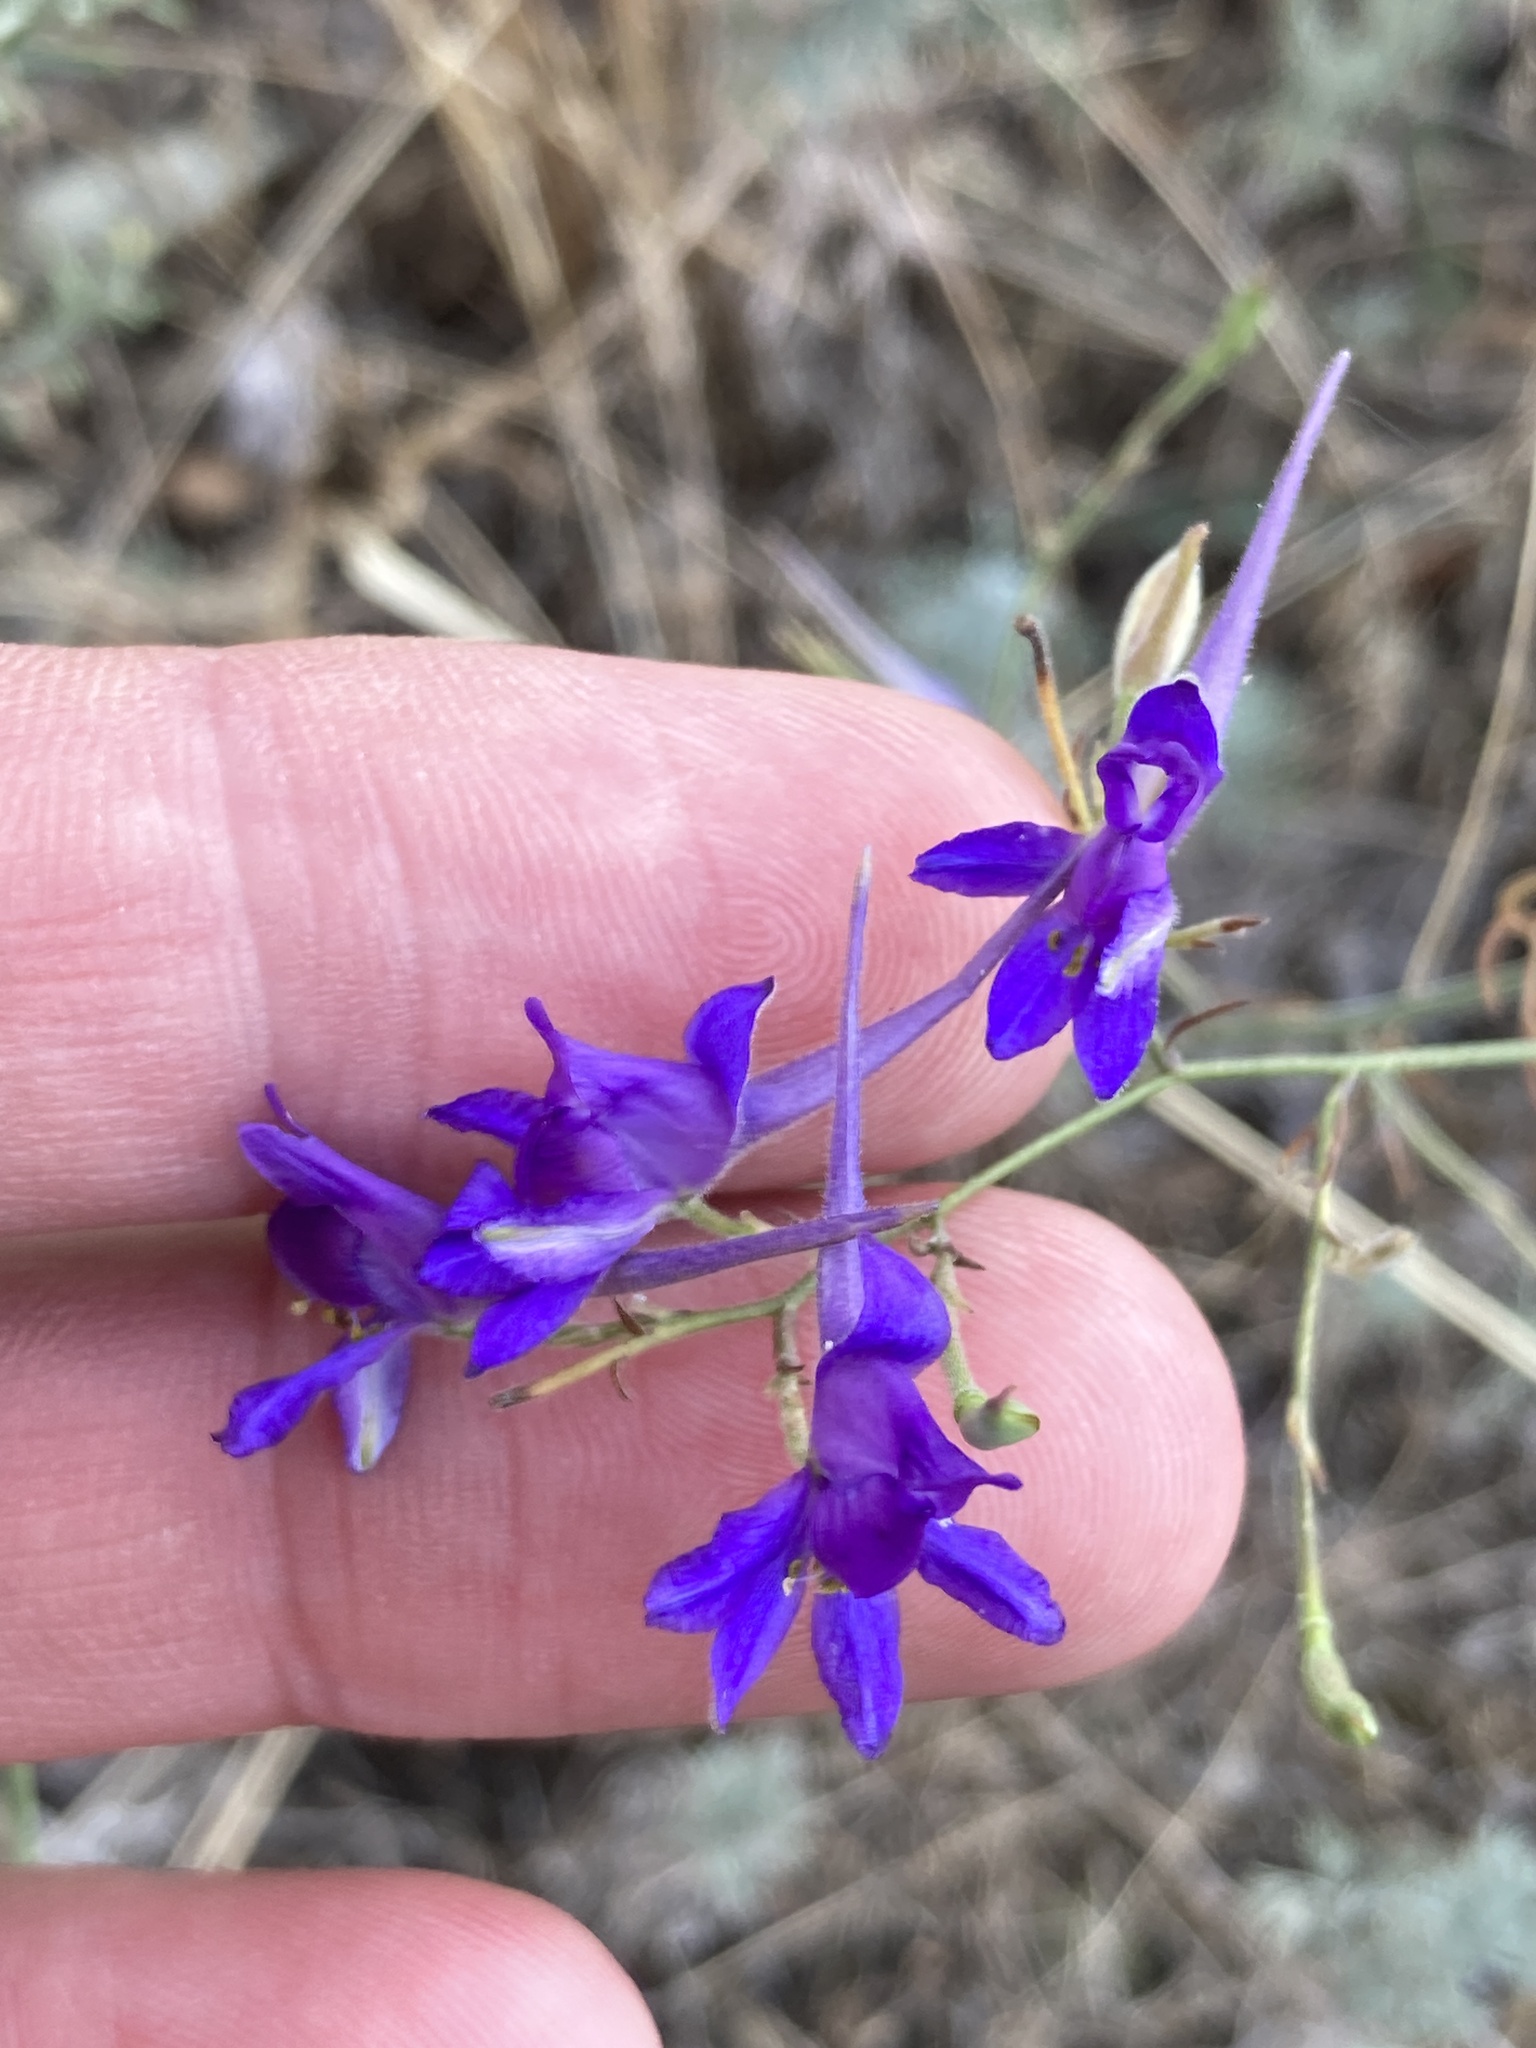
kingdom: Plantae
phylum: Tracheophyta
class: Magnoliopsida
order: Ranunculales
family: Ranunculaceae
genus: Delphinium
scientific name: Delphinium consolida
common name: Branching larkspur
